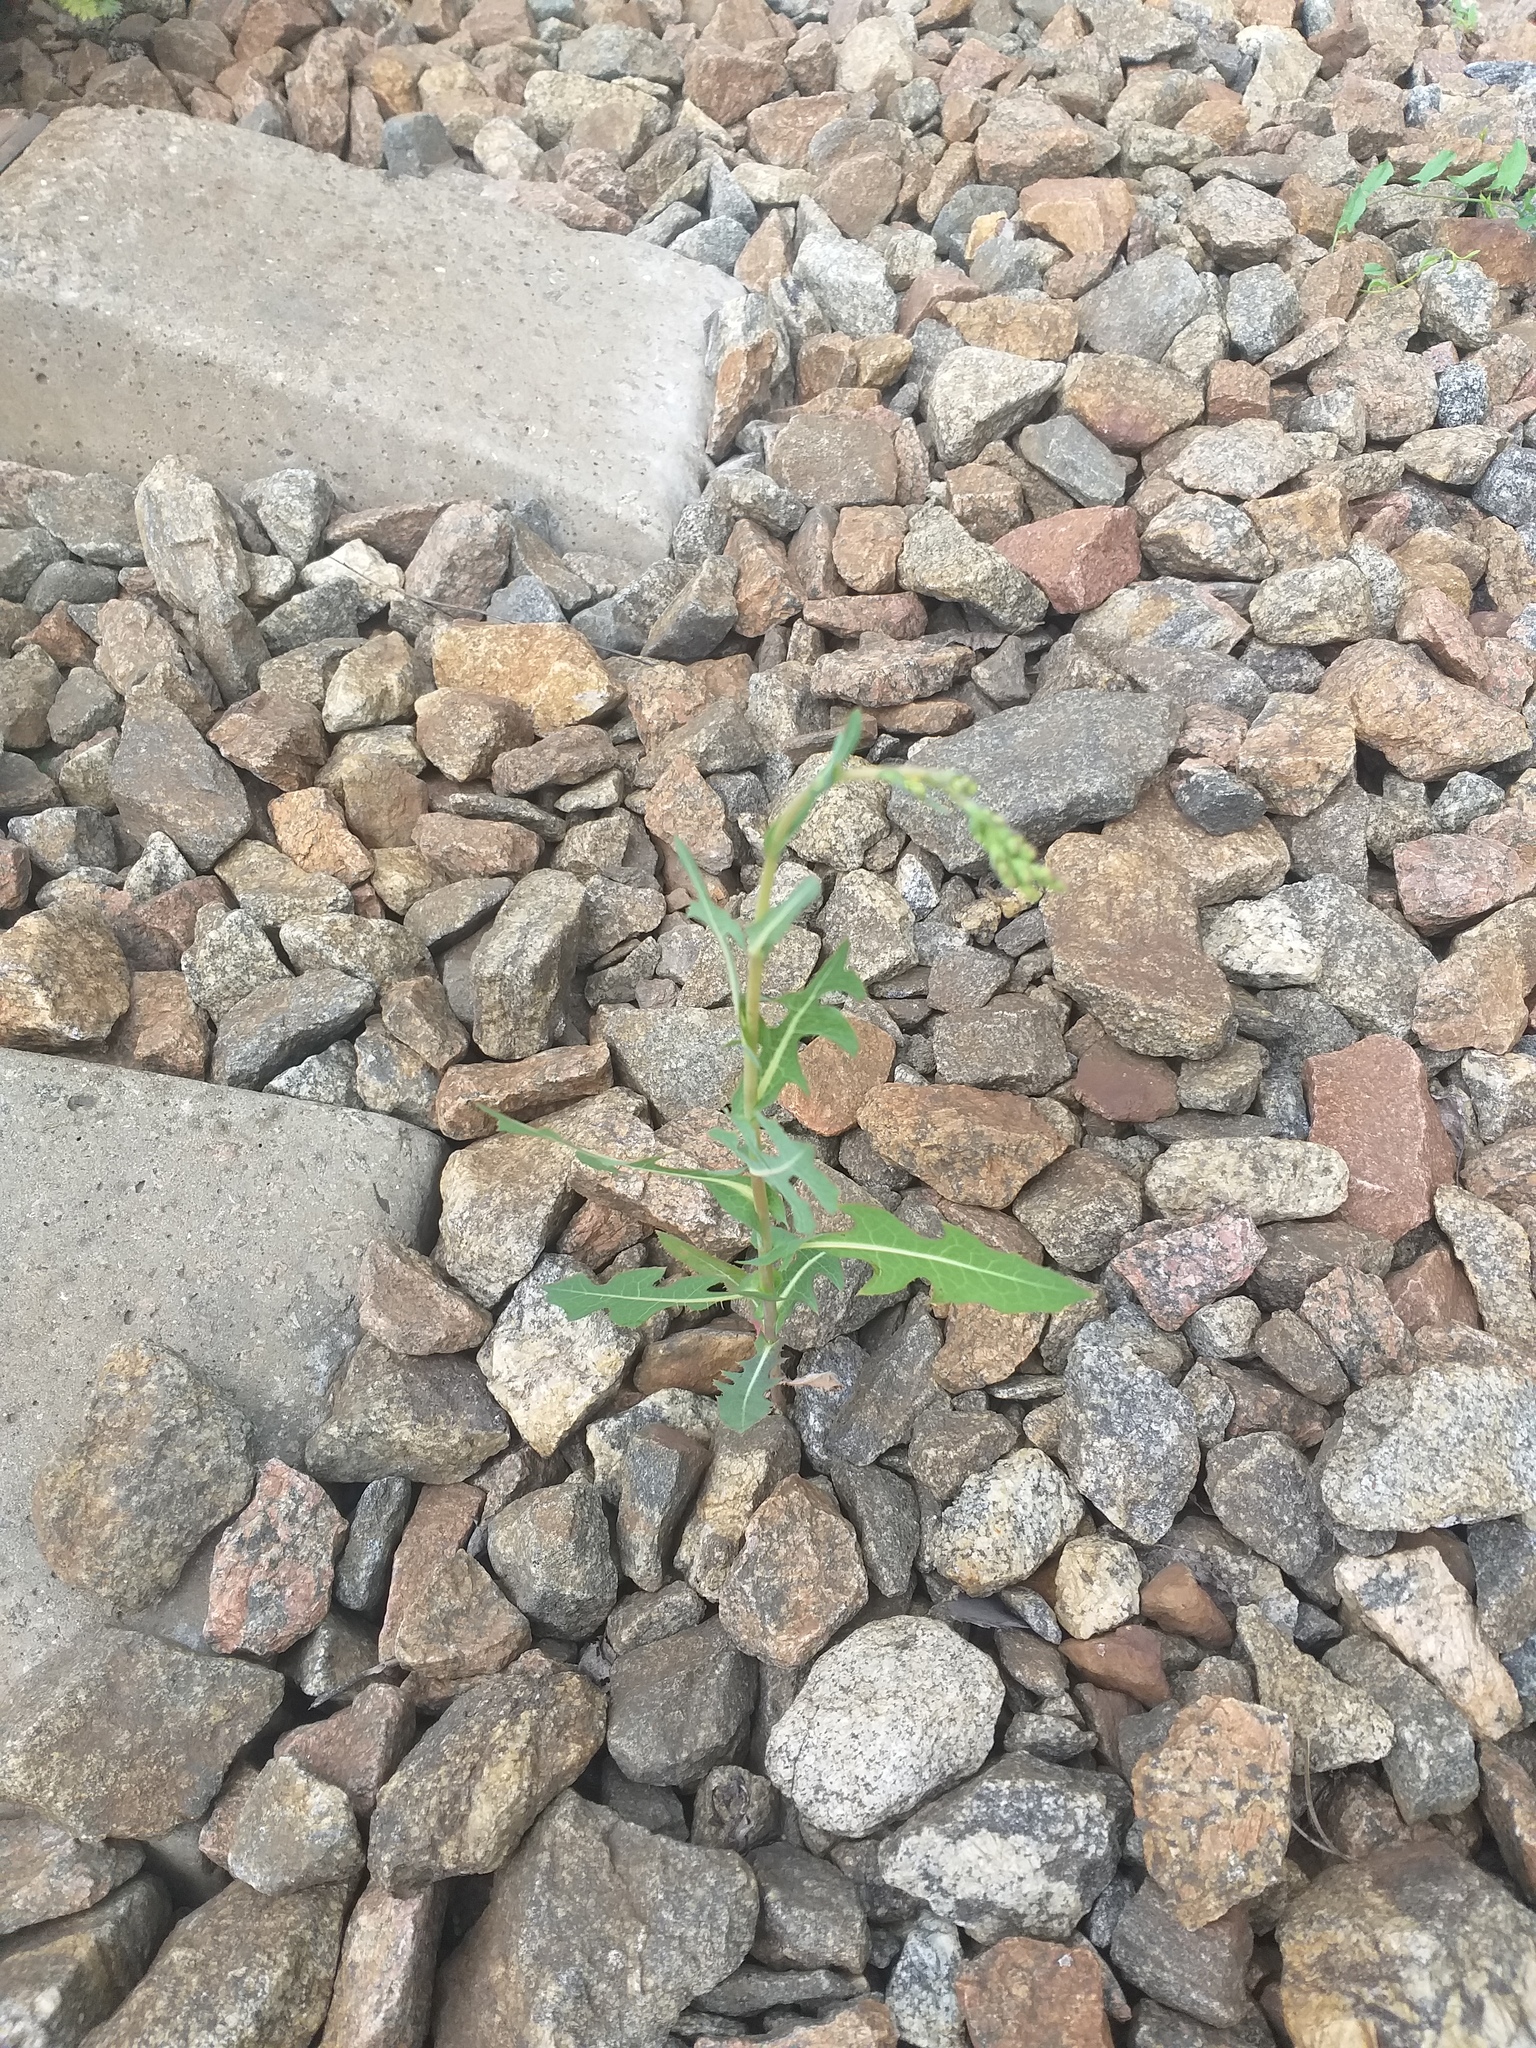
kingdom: Plantae
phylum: Tracheophyta
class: Magnoliopsida
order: Asterales
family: Asteraceae
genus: Lactuca
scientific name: Lactuca serriola
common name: Prickly lettuce
